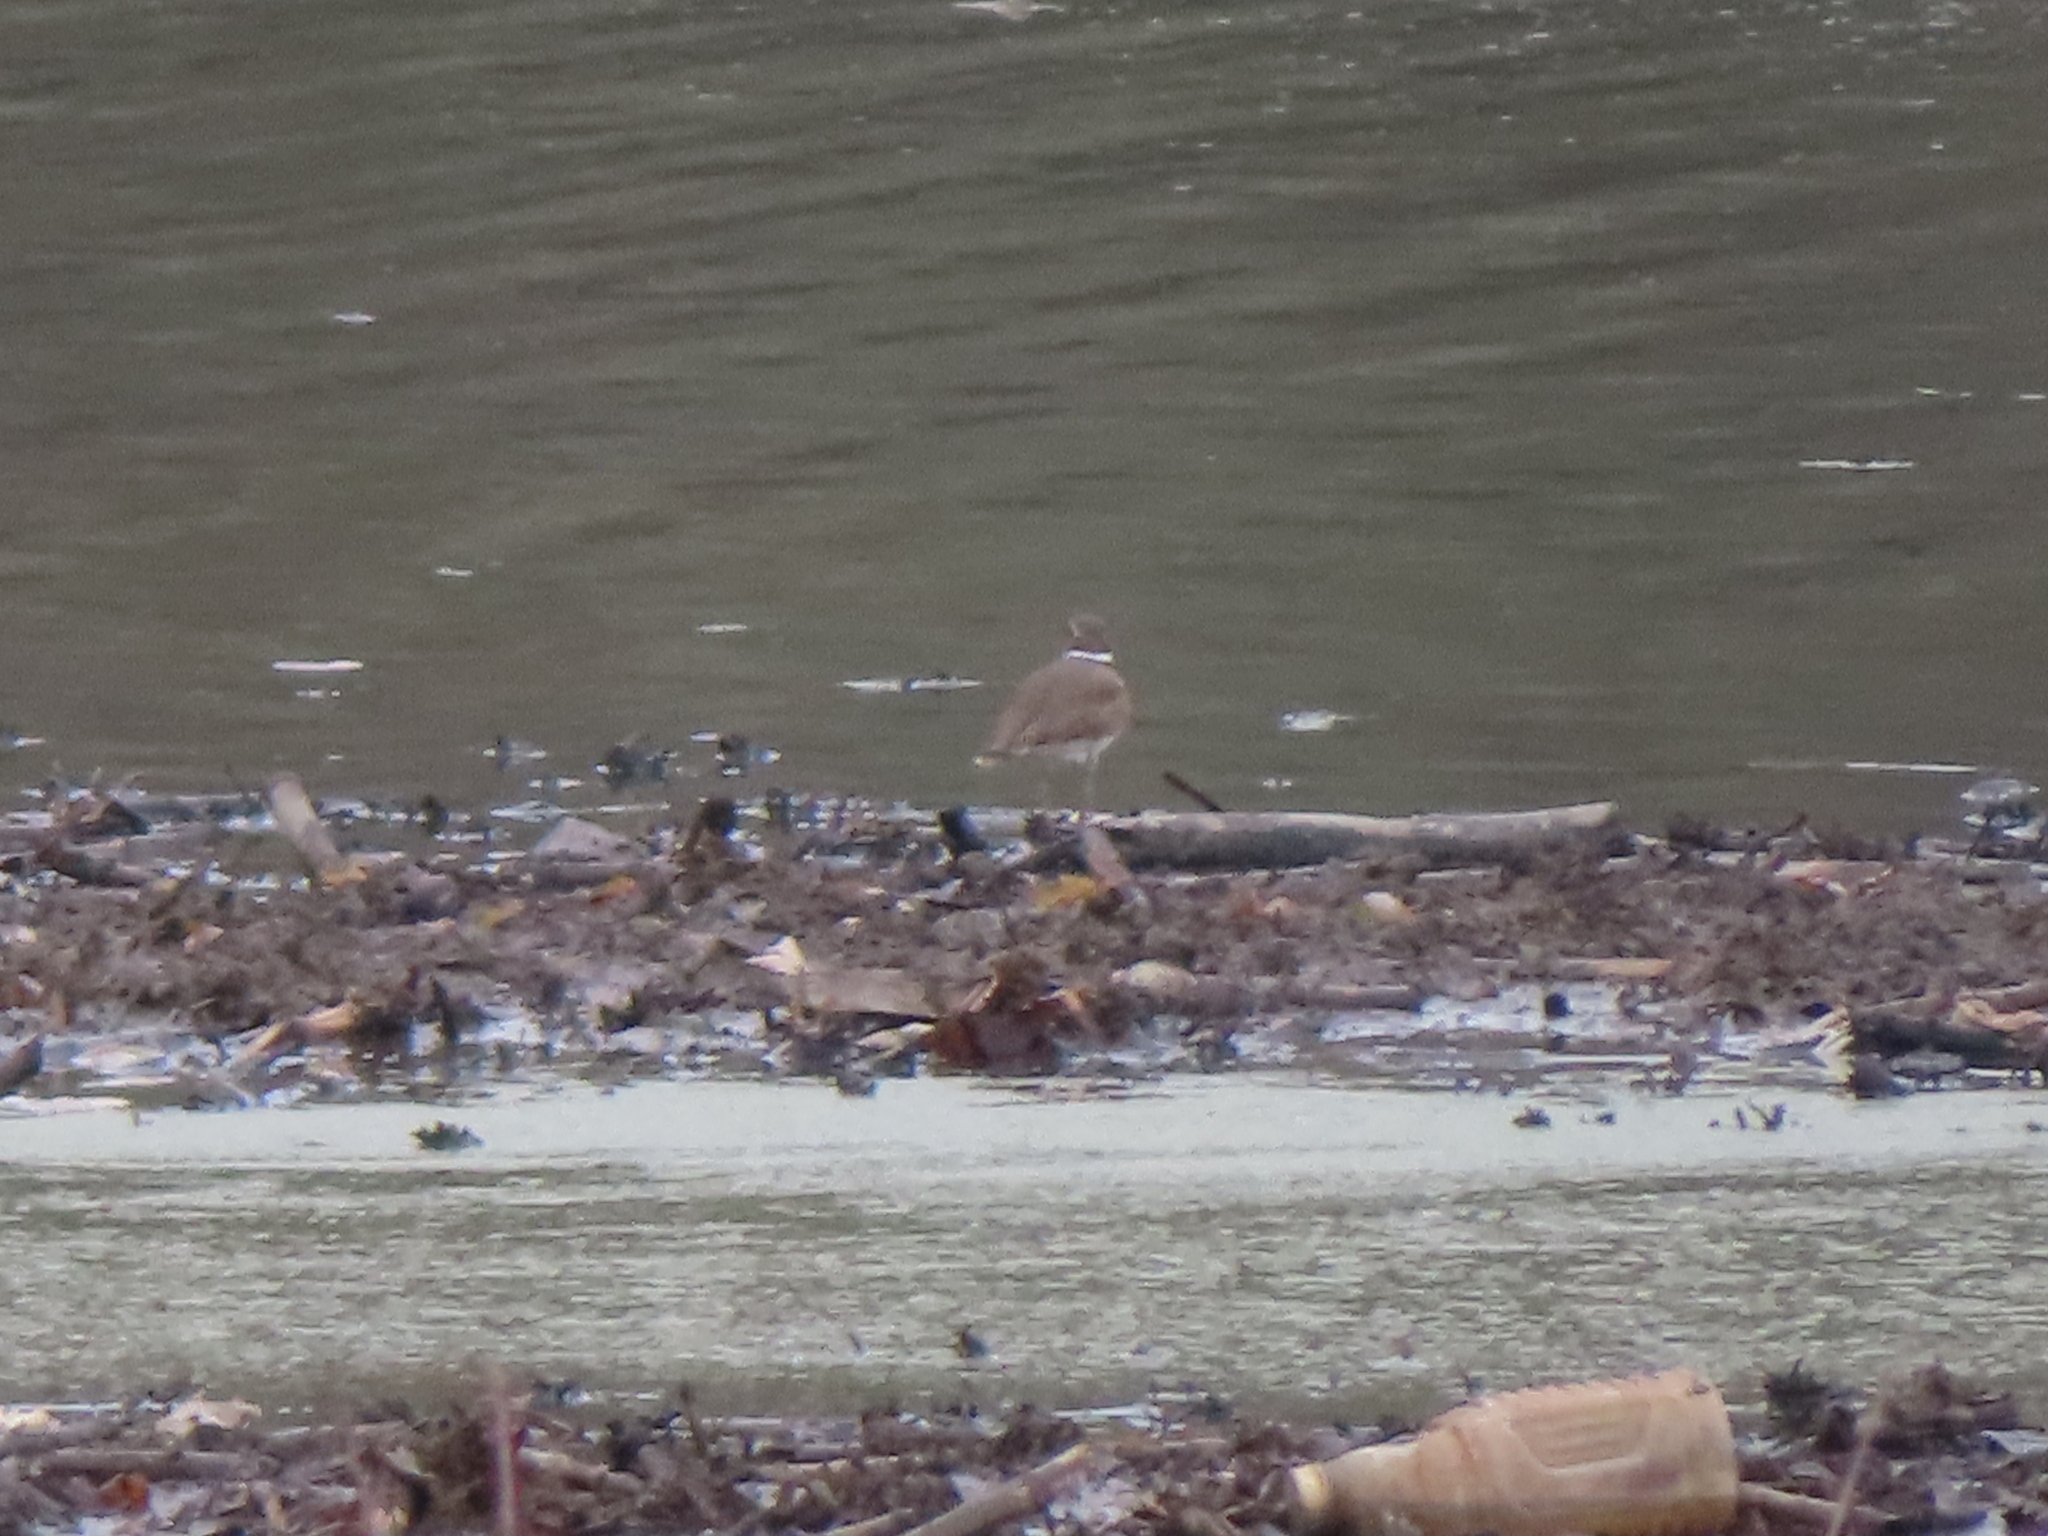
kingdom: Animalia
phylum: Chordata
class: Aves
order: Charadriiformes
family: Charadriidae
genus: Charadrius
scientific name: Charadrius vociferus
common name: Killdeer
